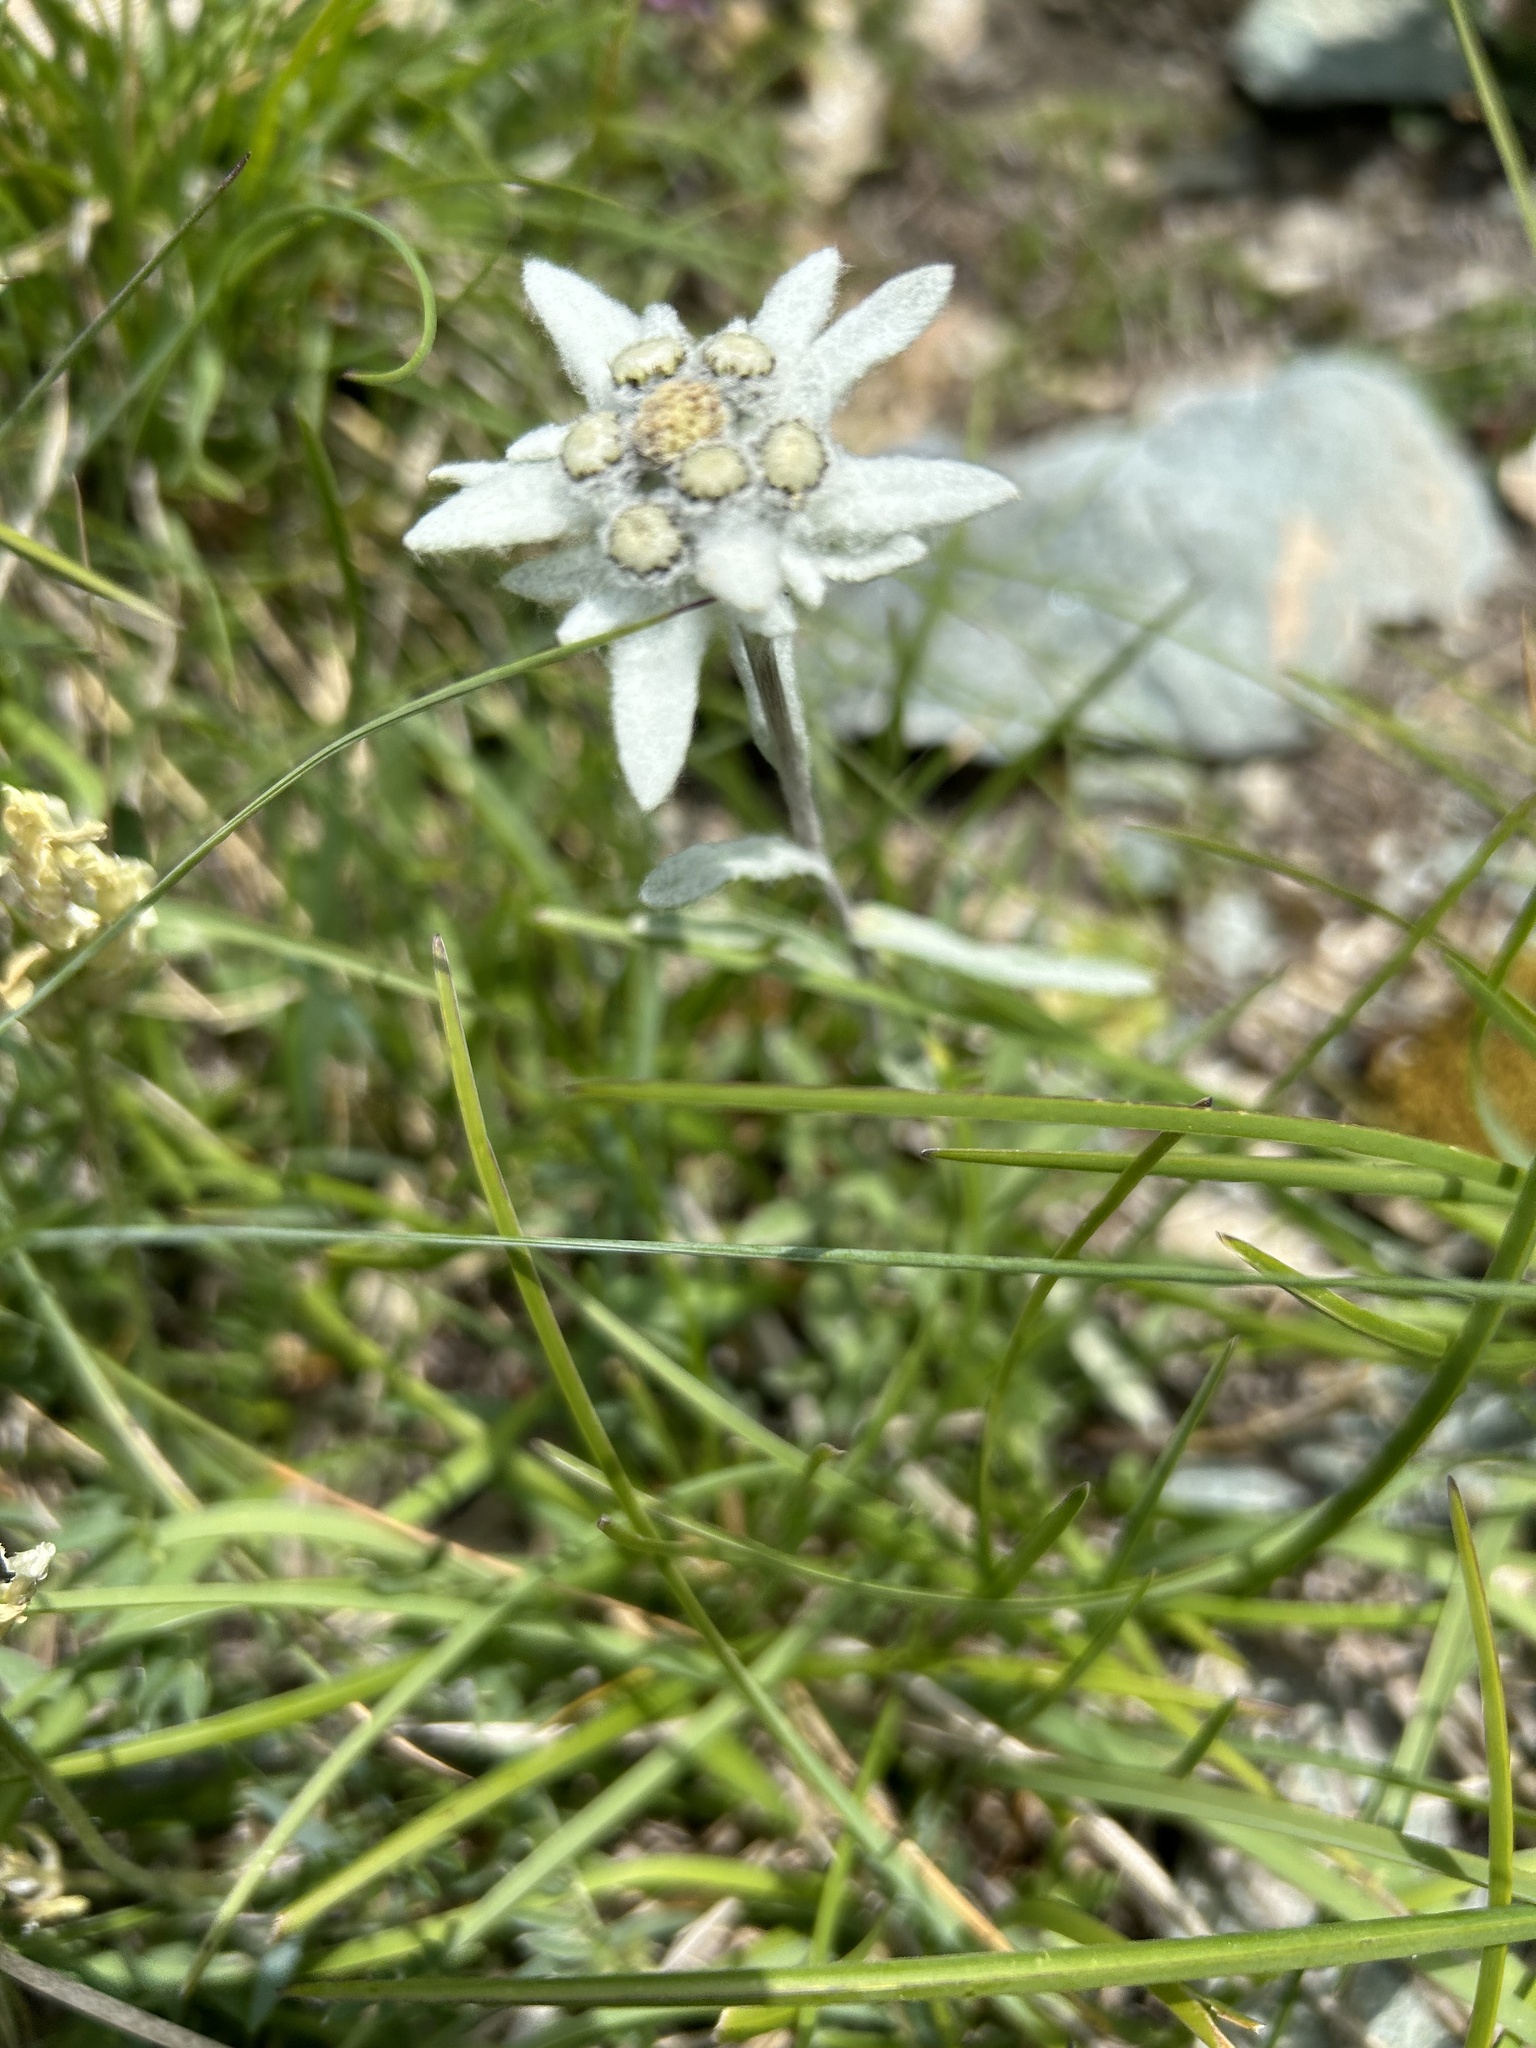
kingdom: Plantae
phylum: Tracheophyta
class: Magnoliopsida
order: Asterales
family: Asteraceae
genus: Leontopodium
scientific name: Leontopodium nivale
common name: Edelweiss
